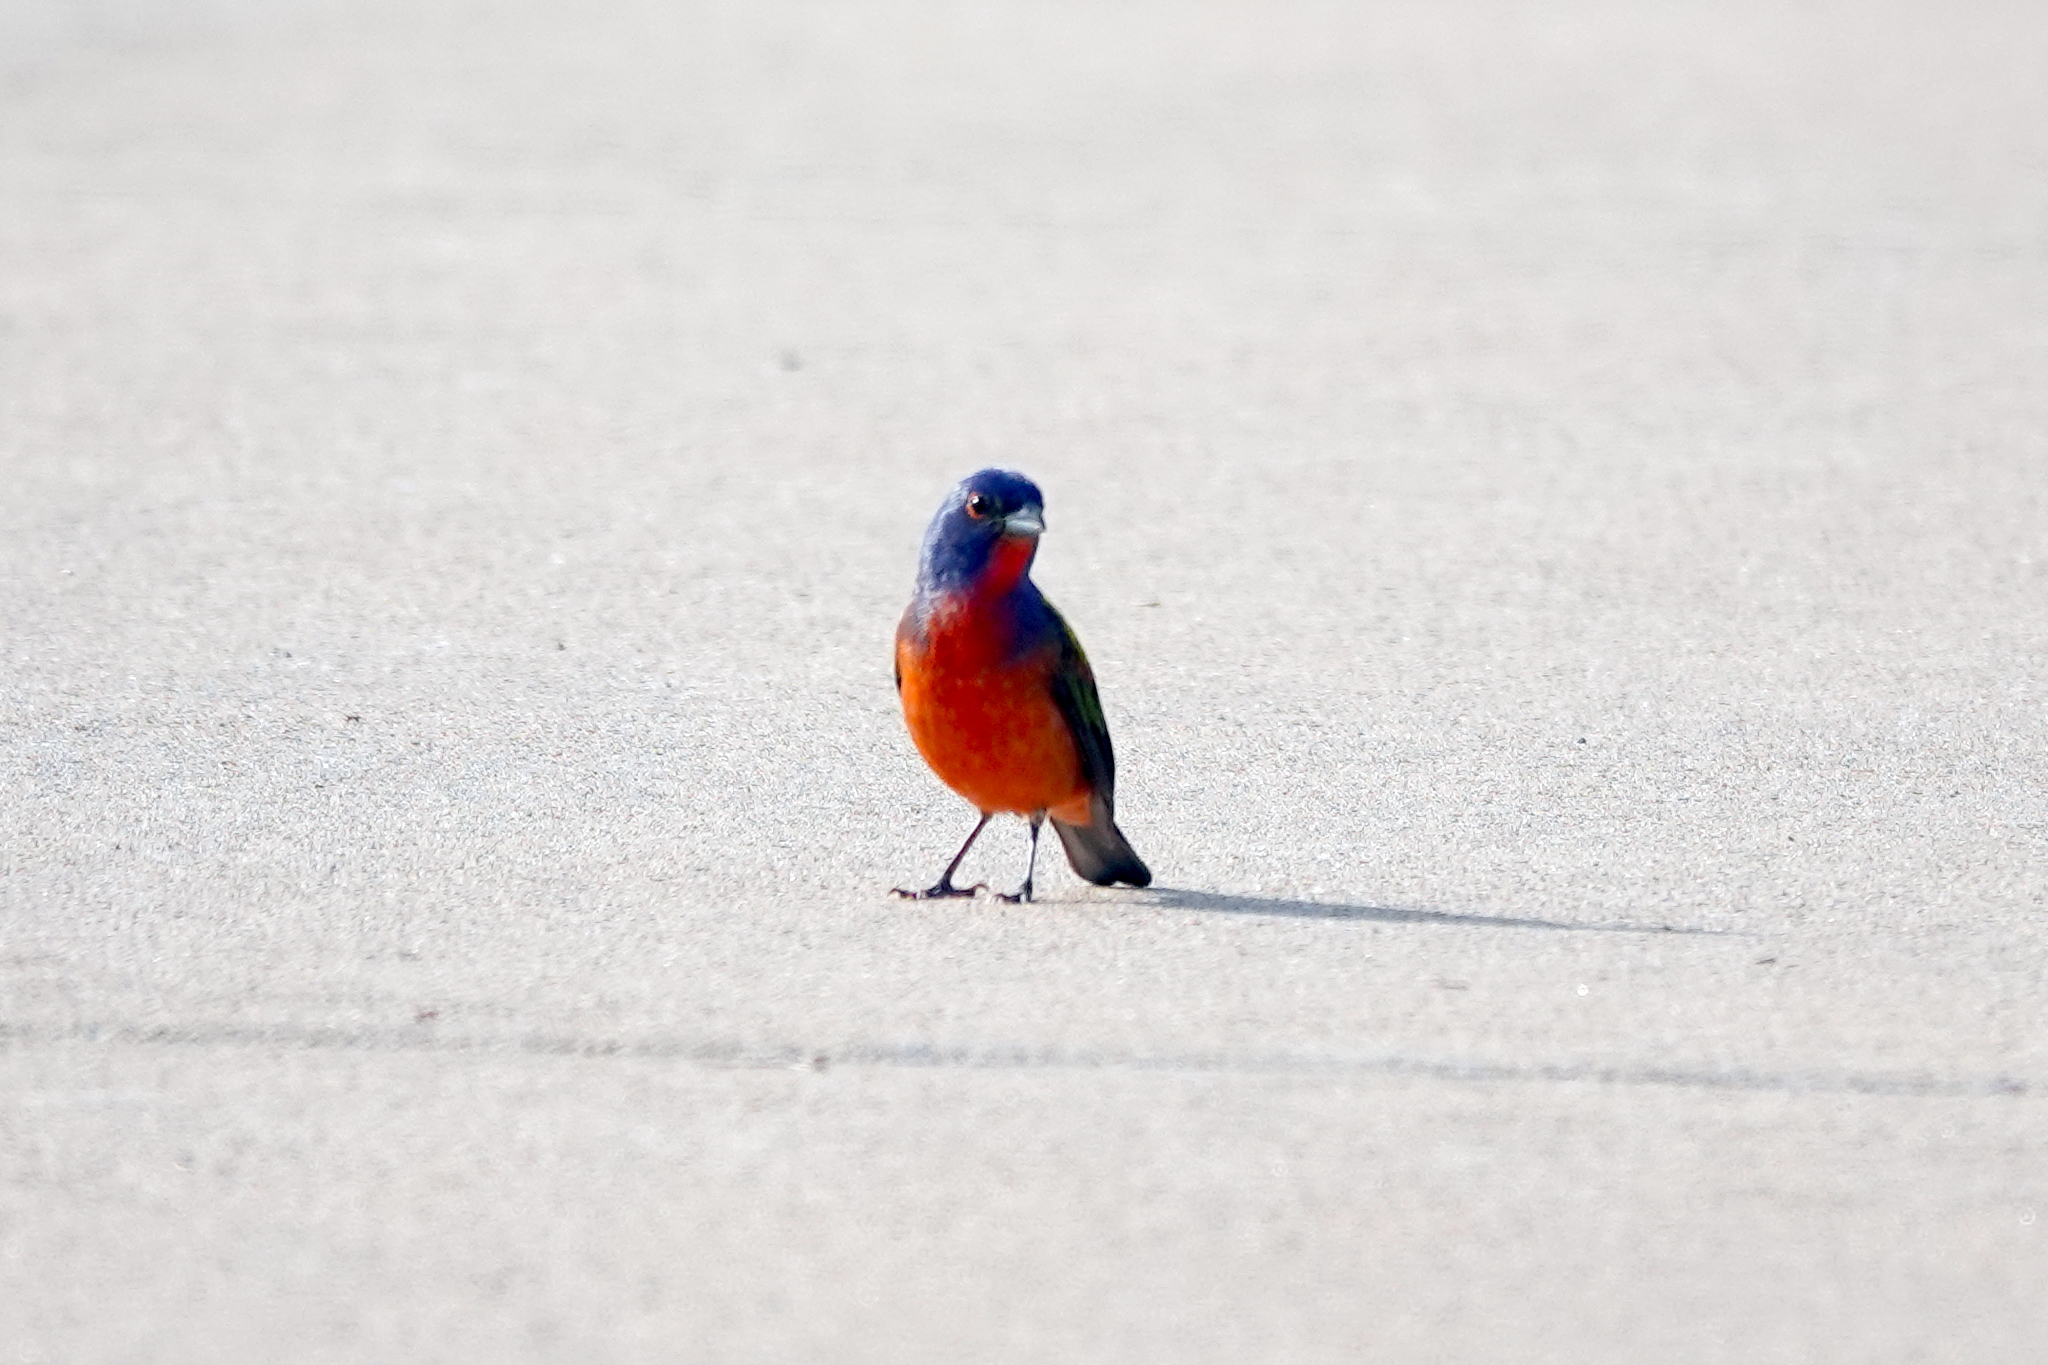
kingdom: Animalia
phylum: Chordata
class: Aves
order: Passeriformes
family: Cardinalidae
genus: Passerina
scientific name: Passerina ciris
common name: Painted bunting
